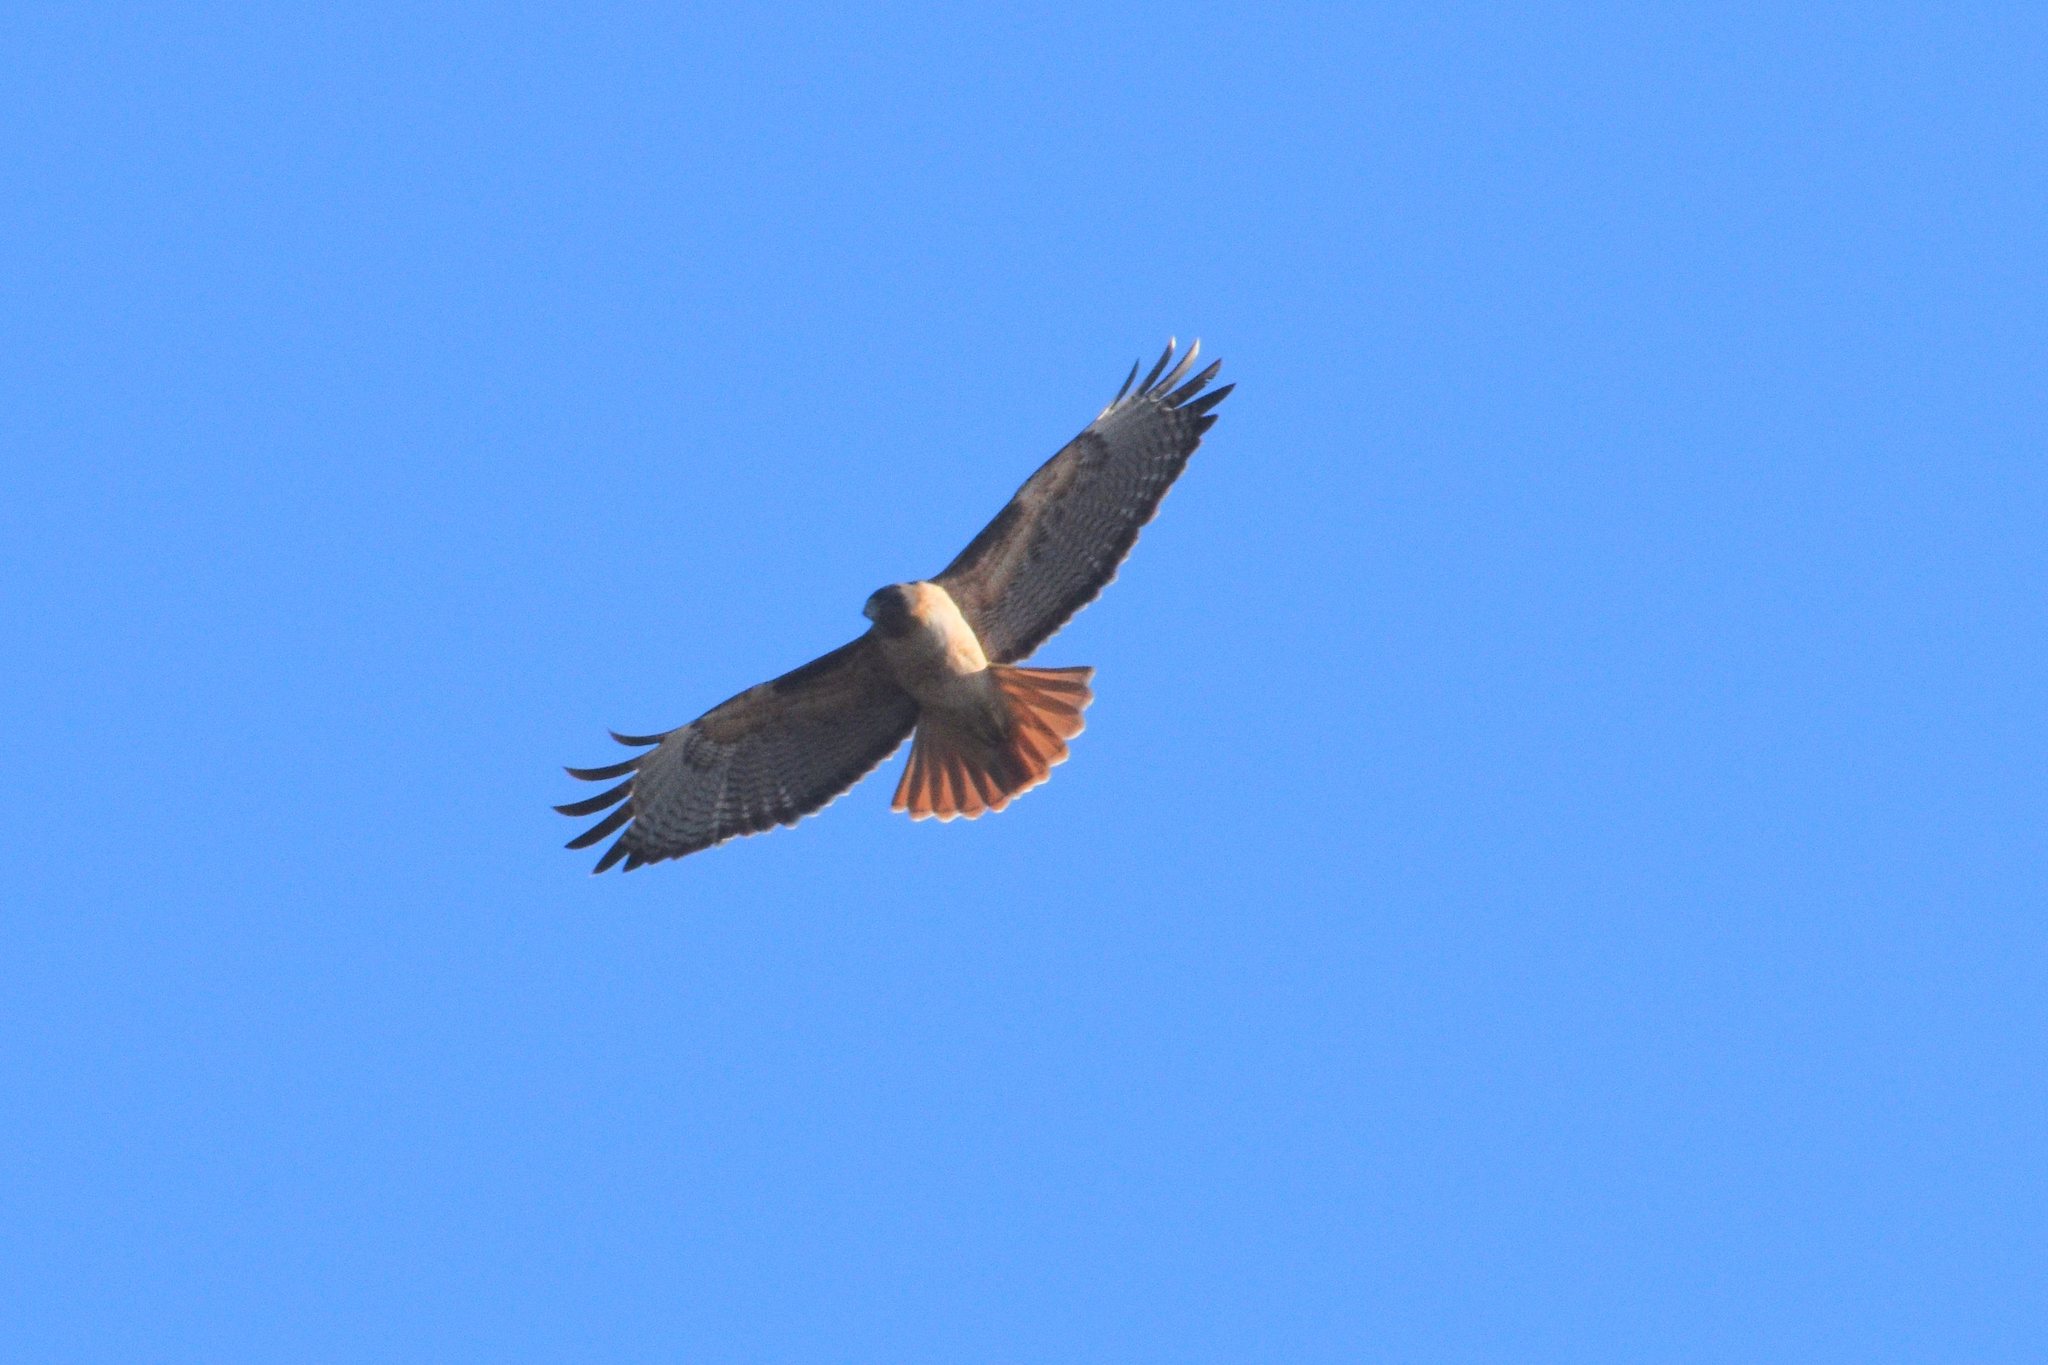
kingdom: Animalia
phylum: Chordata
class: Aves
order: Accipitriformes
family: Accipitridae
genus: Buteo
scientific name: Buteo jamaicensis
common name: Red-tailed hawk
